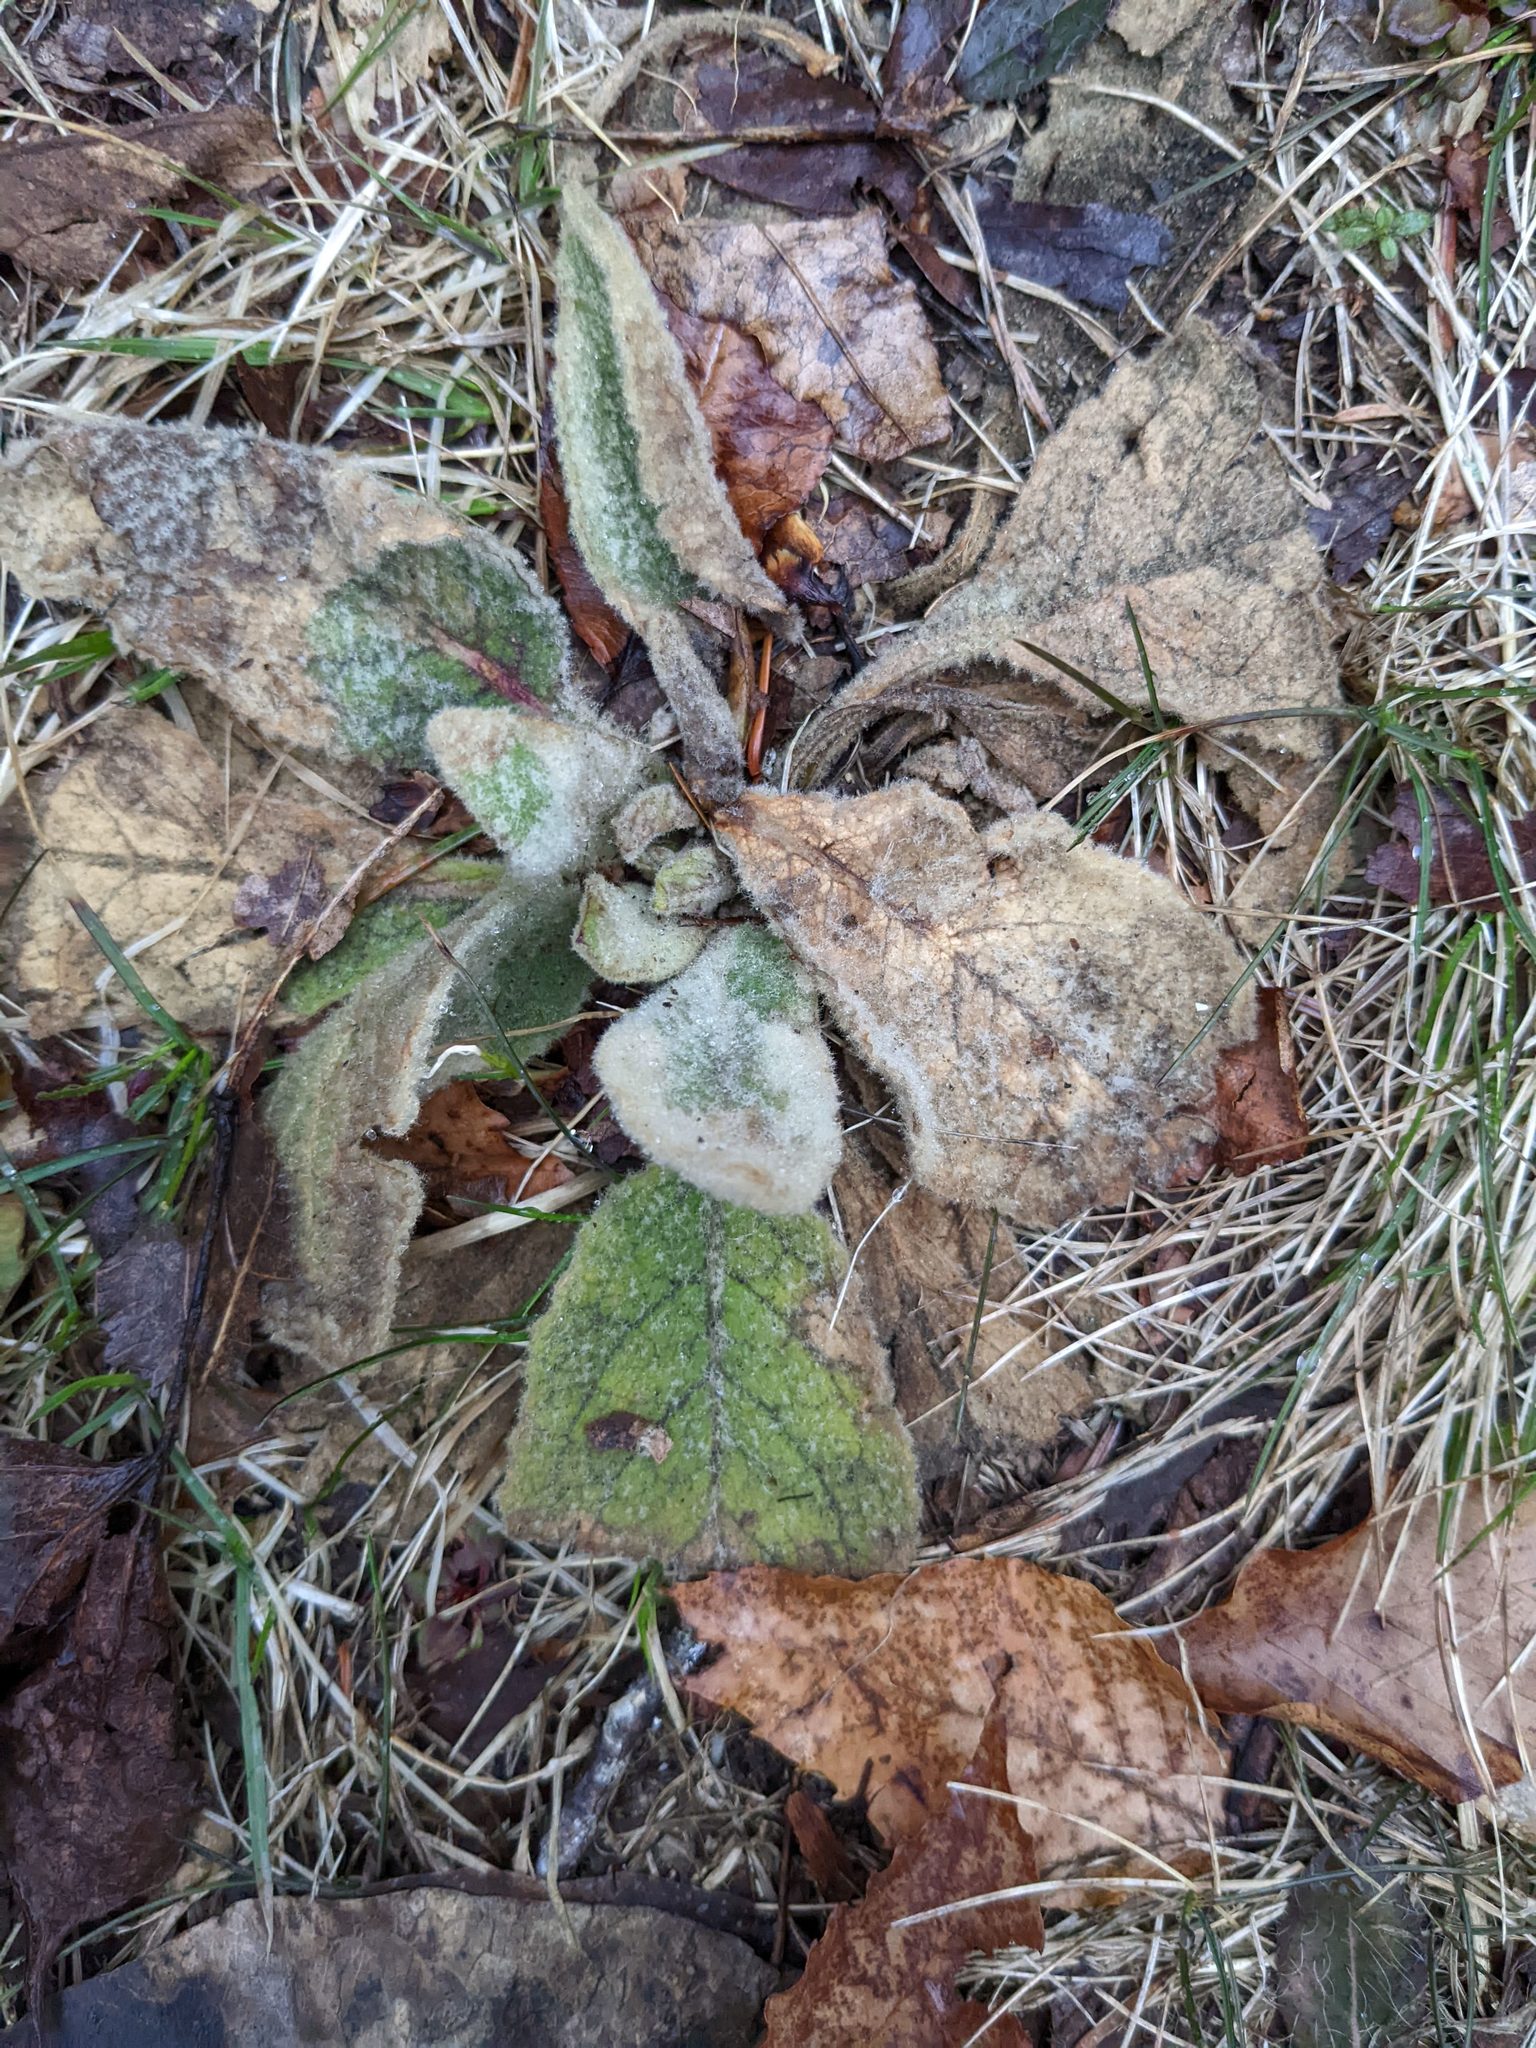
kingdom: Plantae
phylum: Tracheophyta
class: Magnoliopsida
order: Lamiales
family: Scrophulariaceae
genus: Verbascum
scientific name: Verbascum thapsus
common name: Common mullein
